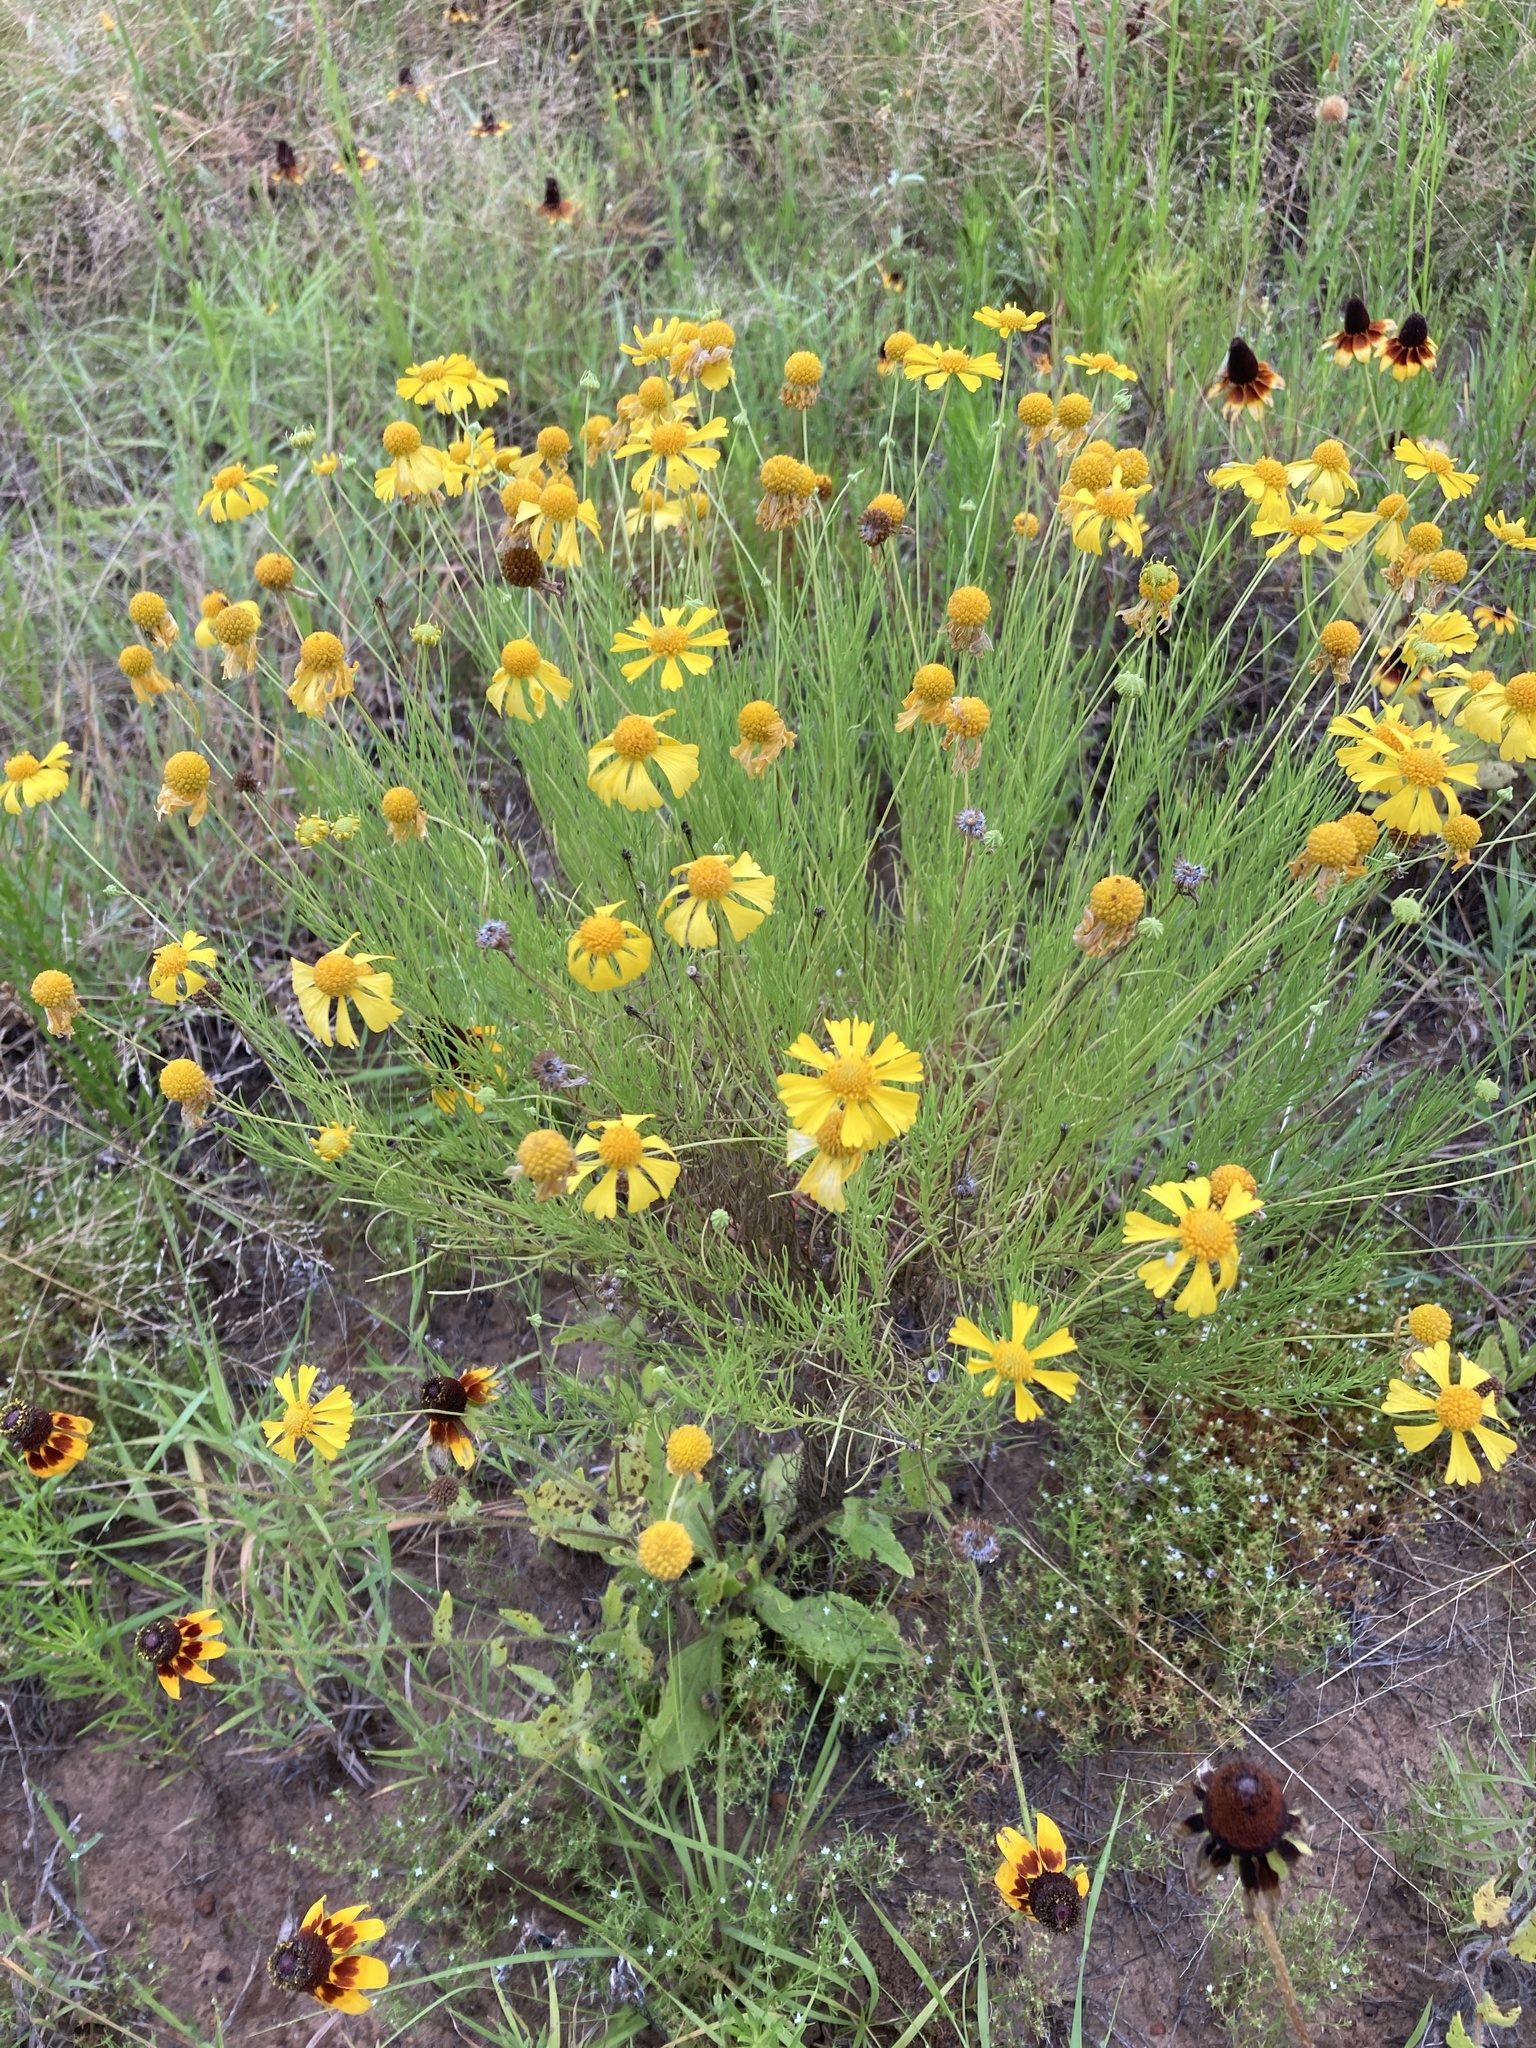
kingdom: Plantae
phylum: Tracheophyta
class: Magnoliopsida
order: Asterales
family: Asteraceae
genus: Helenium
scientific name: Helenium amarum
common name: Bitter sneezeweed
